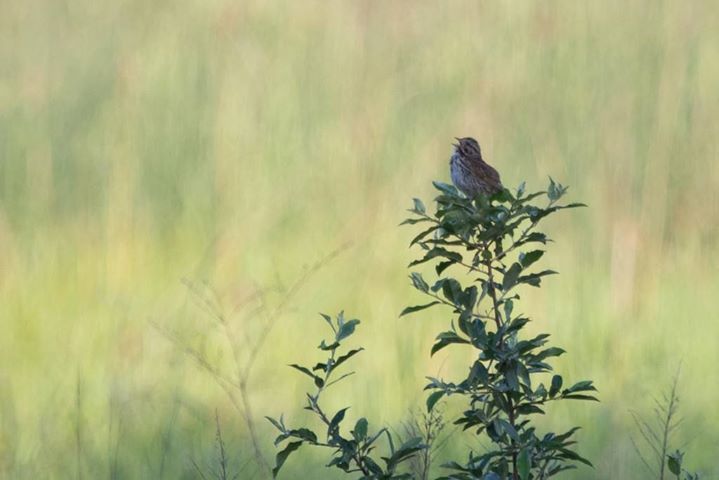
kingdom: Animalia
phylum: Chordata
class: Aves
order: Passeriformes
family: Passerellidae
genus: Melospiza
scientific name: Melospiza melodia
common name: Song sparrow
